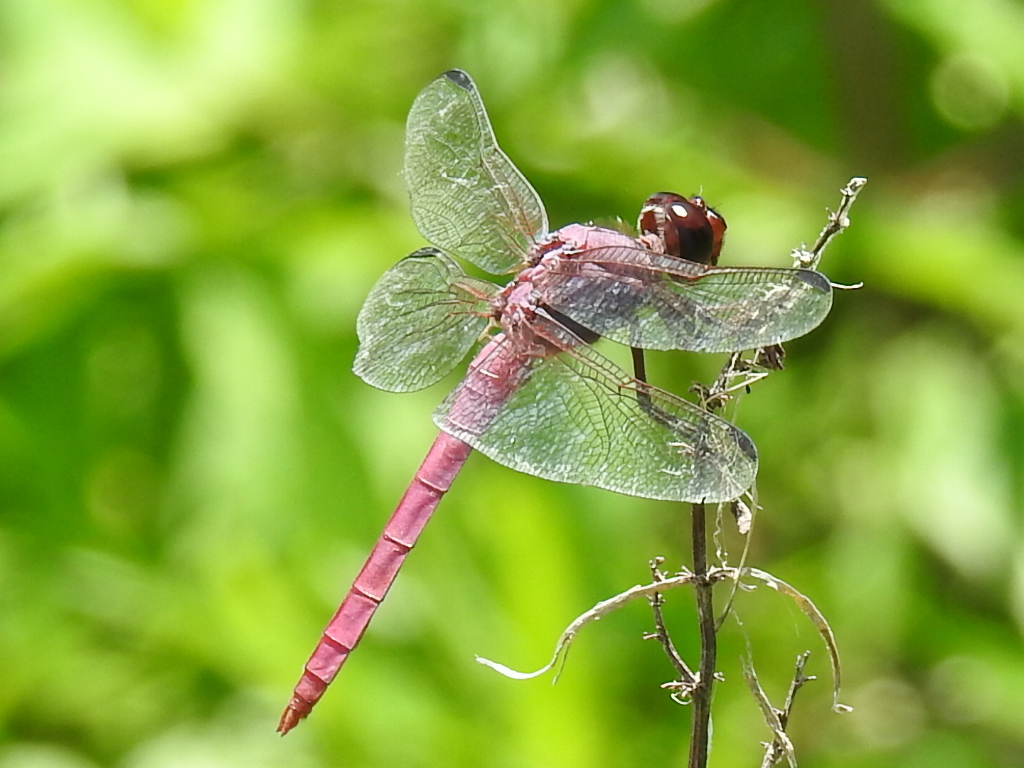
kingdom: Animalia
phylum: Arthropoda
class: Insecta
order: Odonata
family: Libellulidae
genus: Orthemis
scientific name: Orthemis ferruginea
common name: Roseate skimmer
